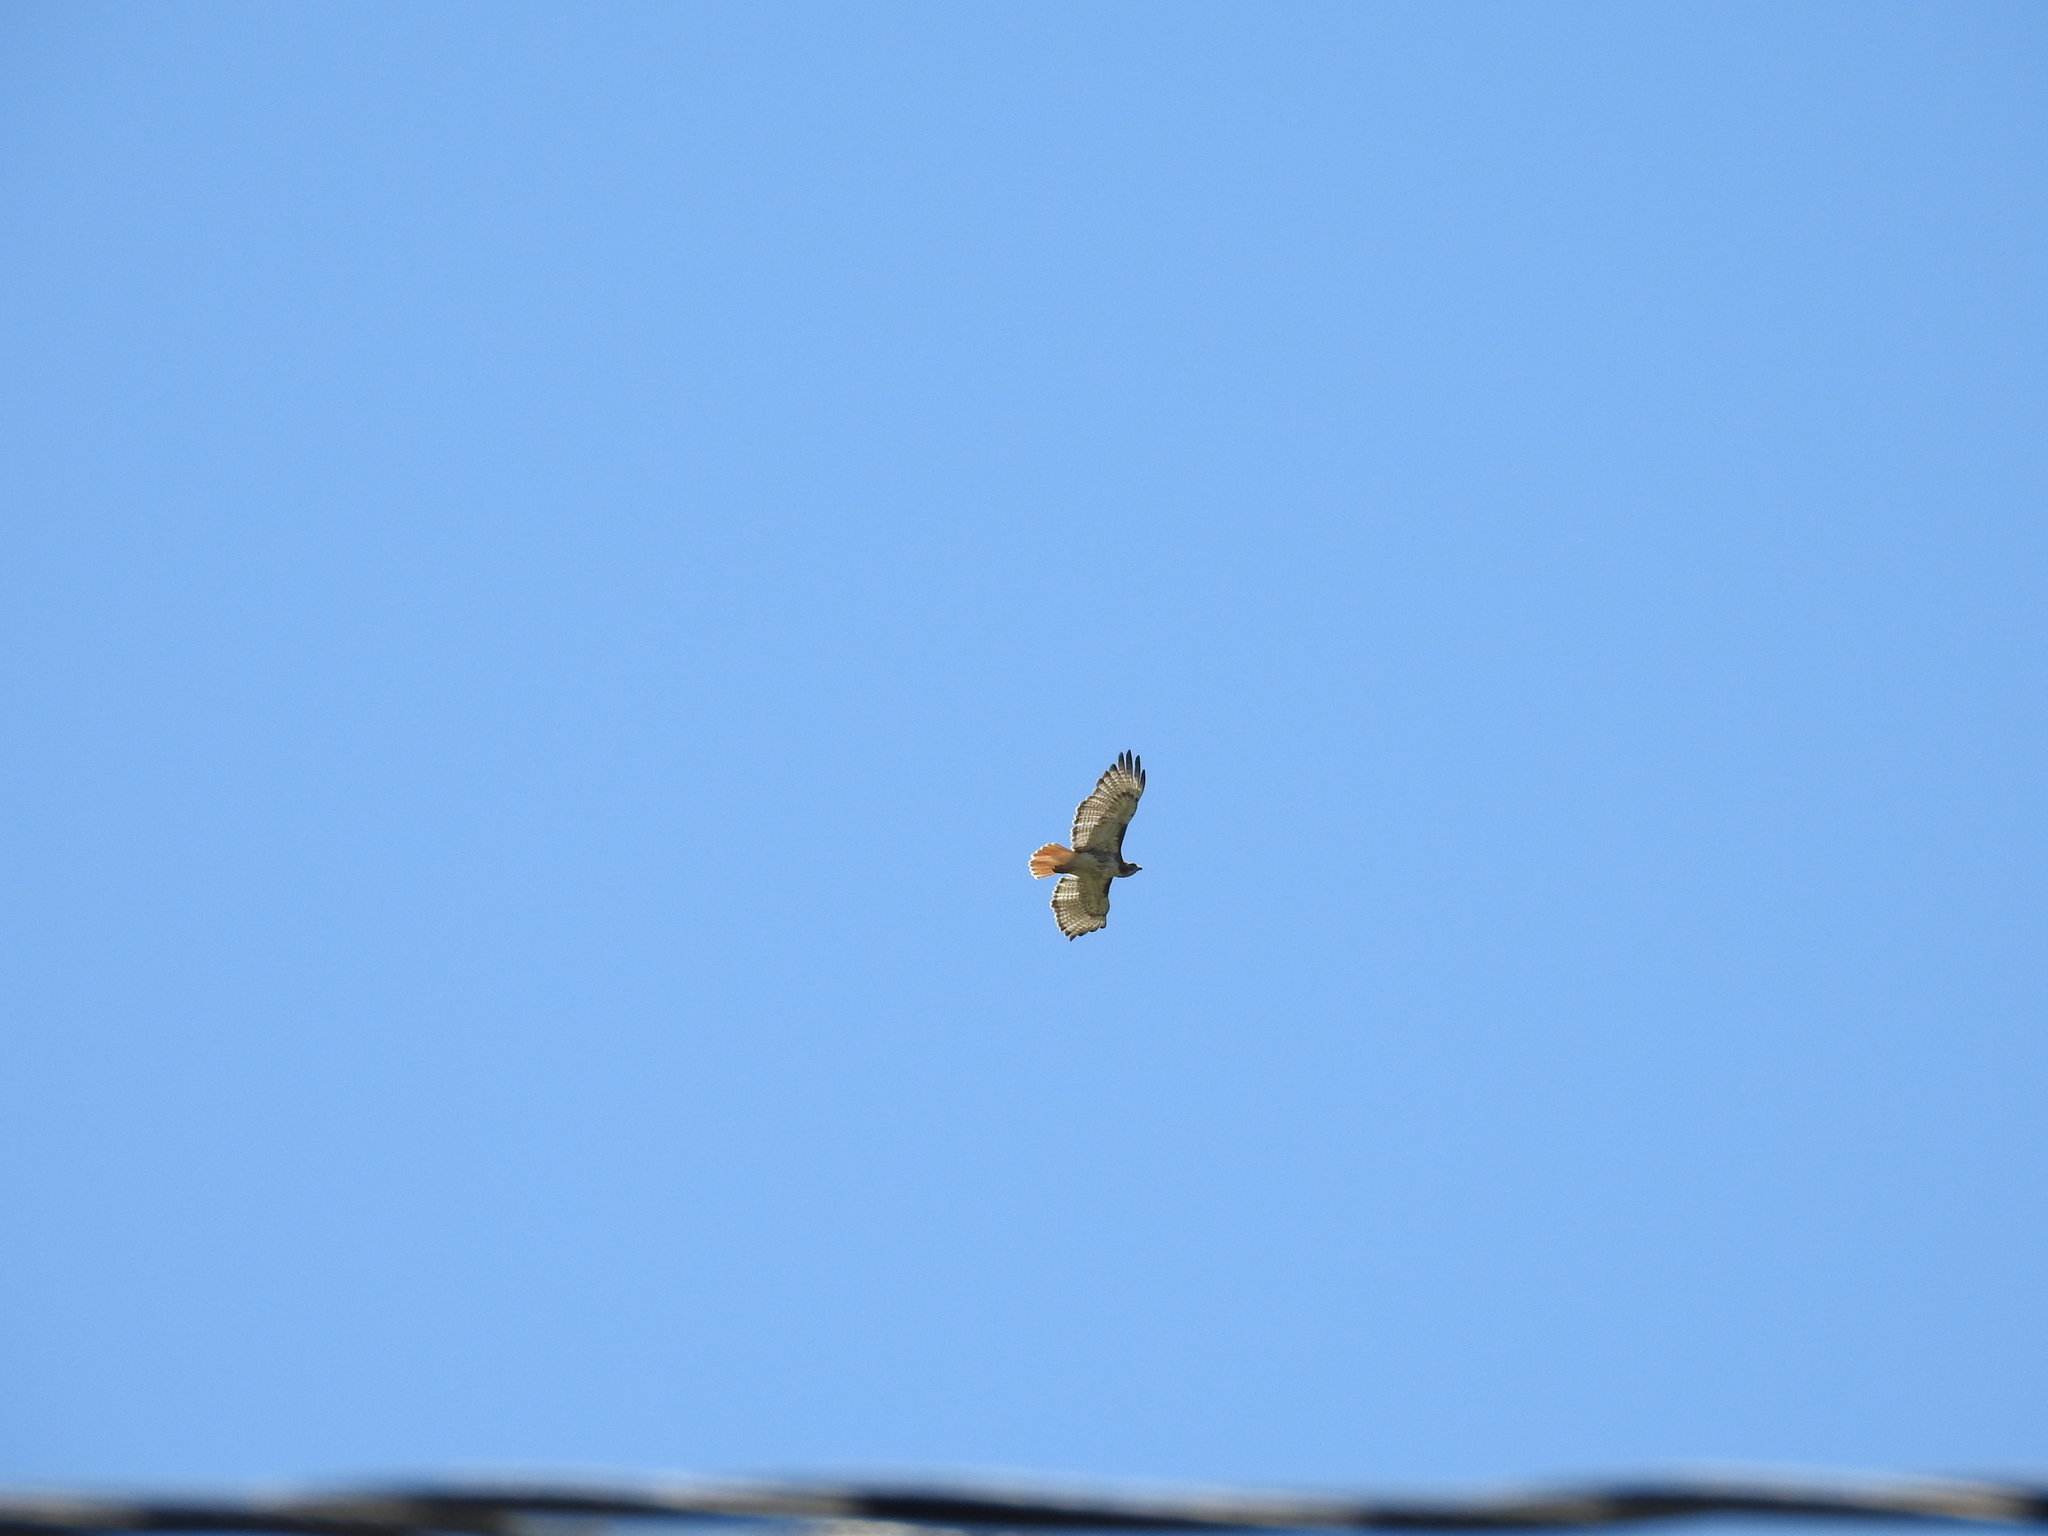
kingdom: Animalia
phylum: Chordata
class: Aves
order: Accipitriformes
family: Accipitridae
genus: Buteo
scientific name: Buteo jamaicensis
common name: Red-tailed hawk
